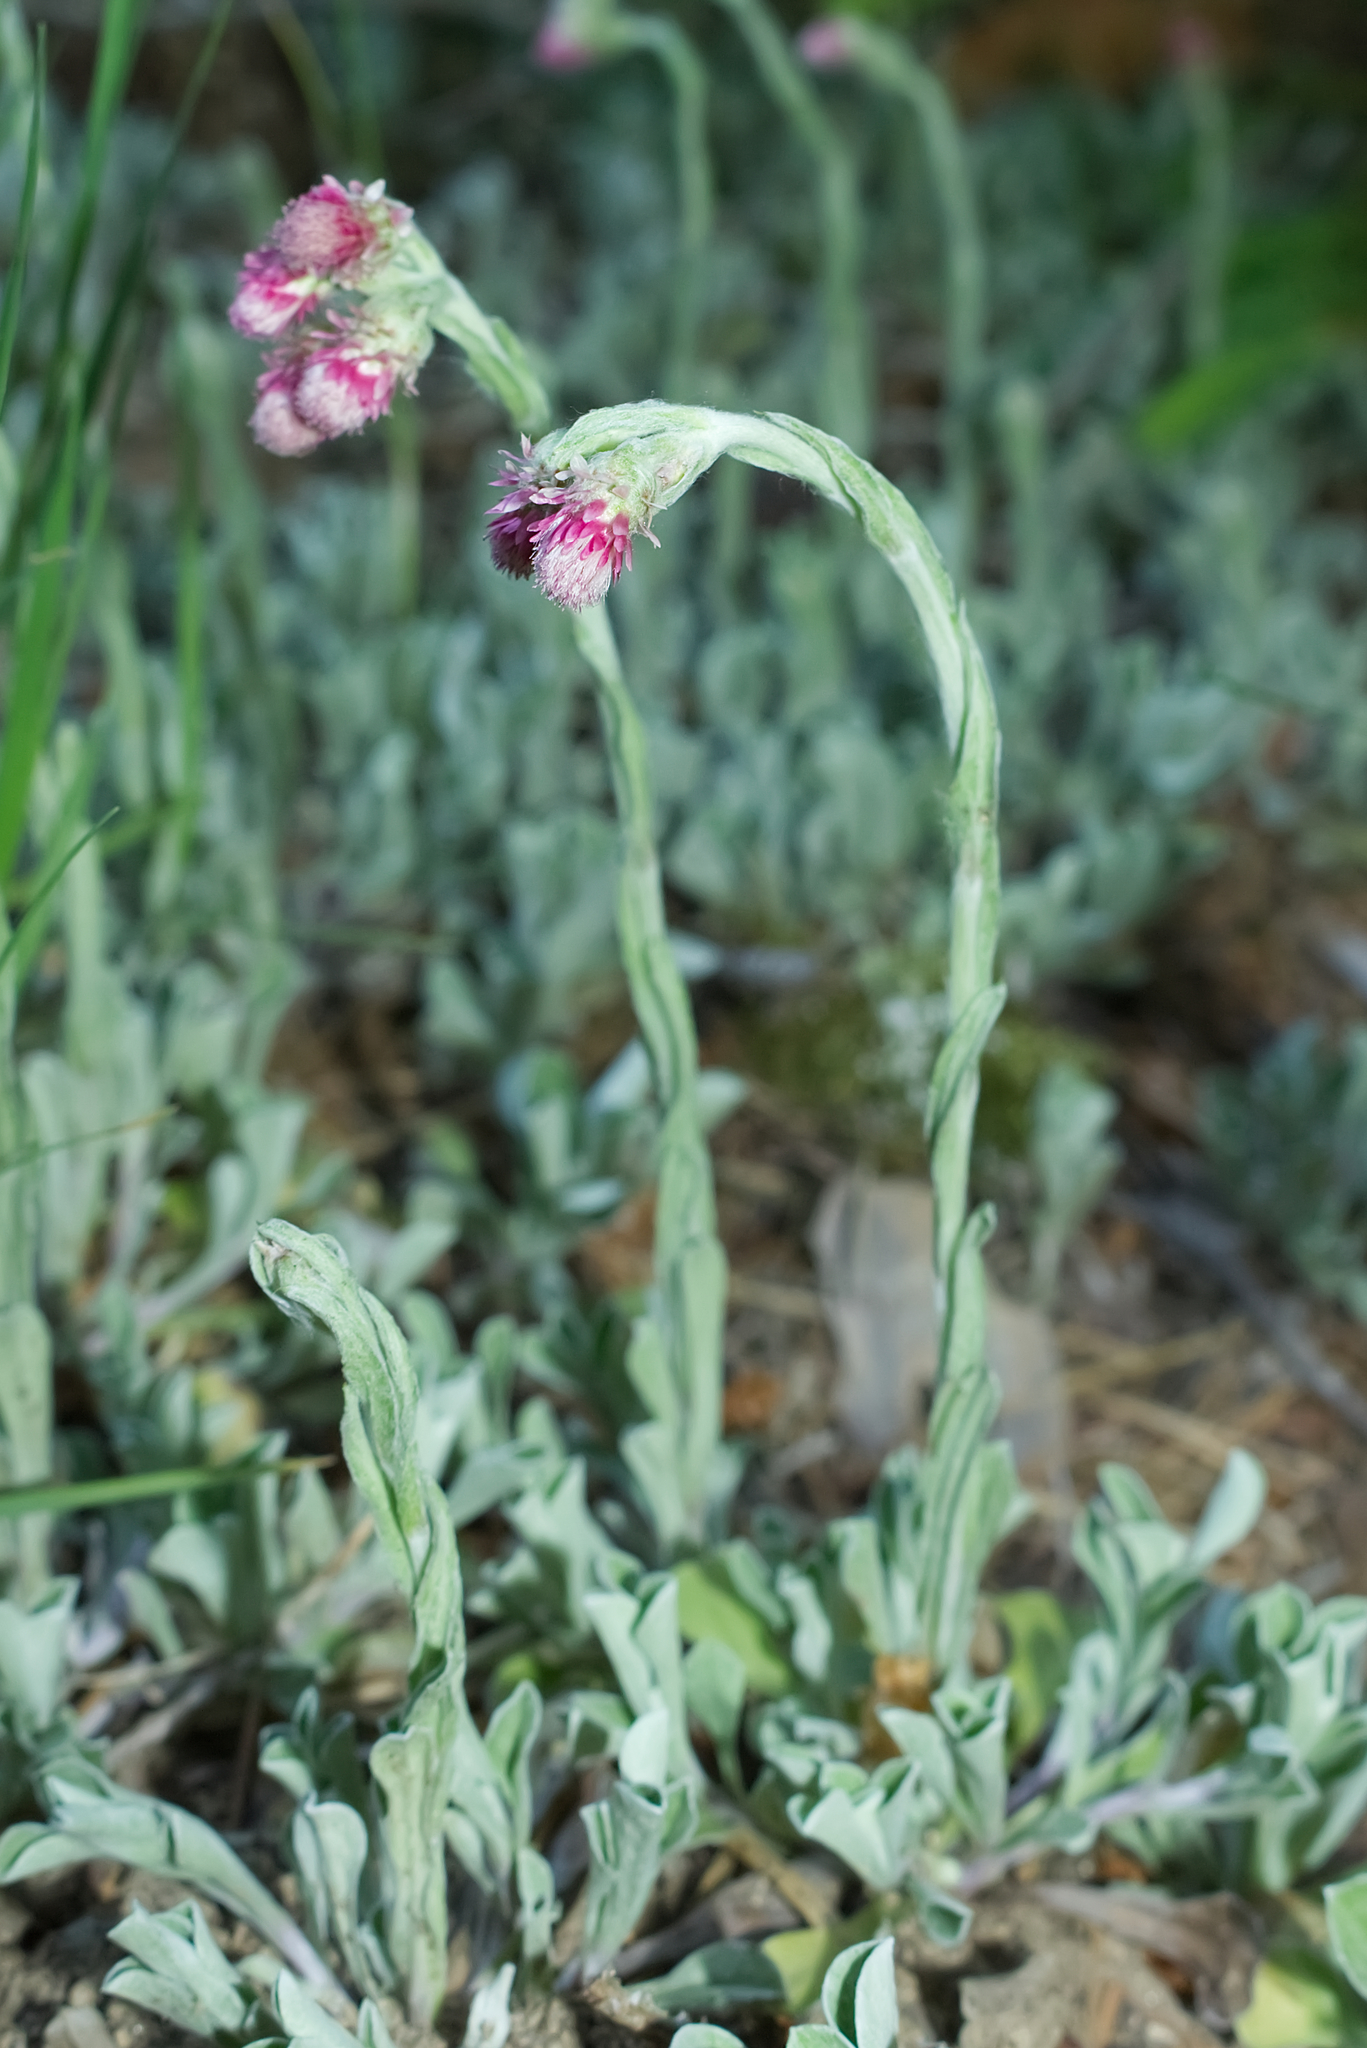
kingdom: Plantae
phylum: Tracheophyta
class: Magnoliopsida
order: Asterales
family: Asteraceae
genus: Antennaria
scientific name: Antennaria dioica
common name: Mountain everlasting
